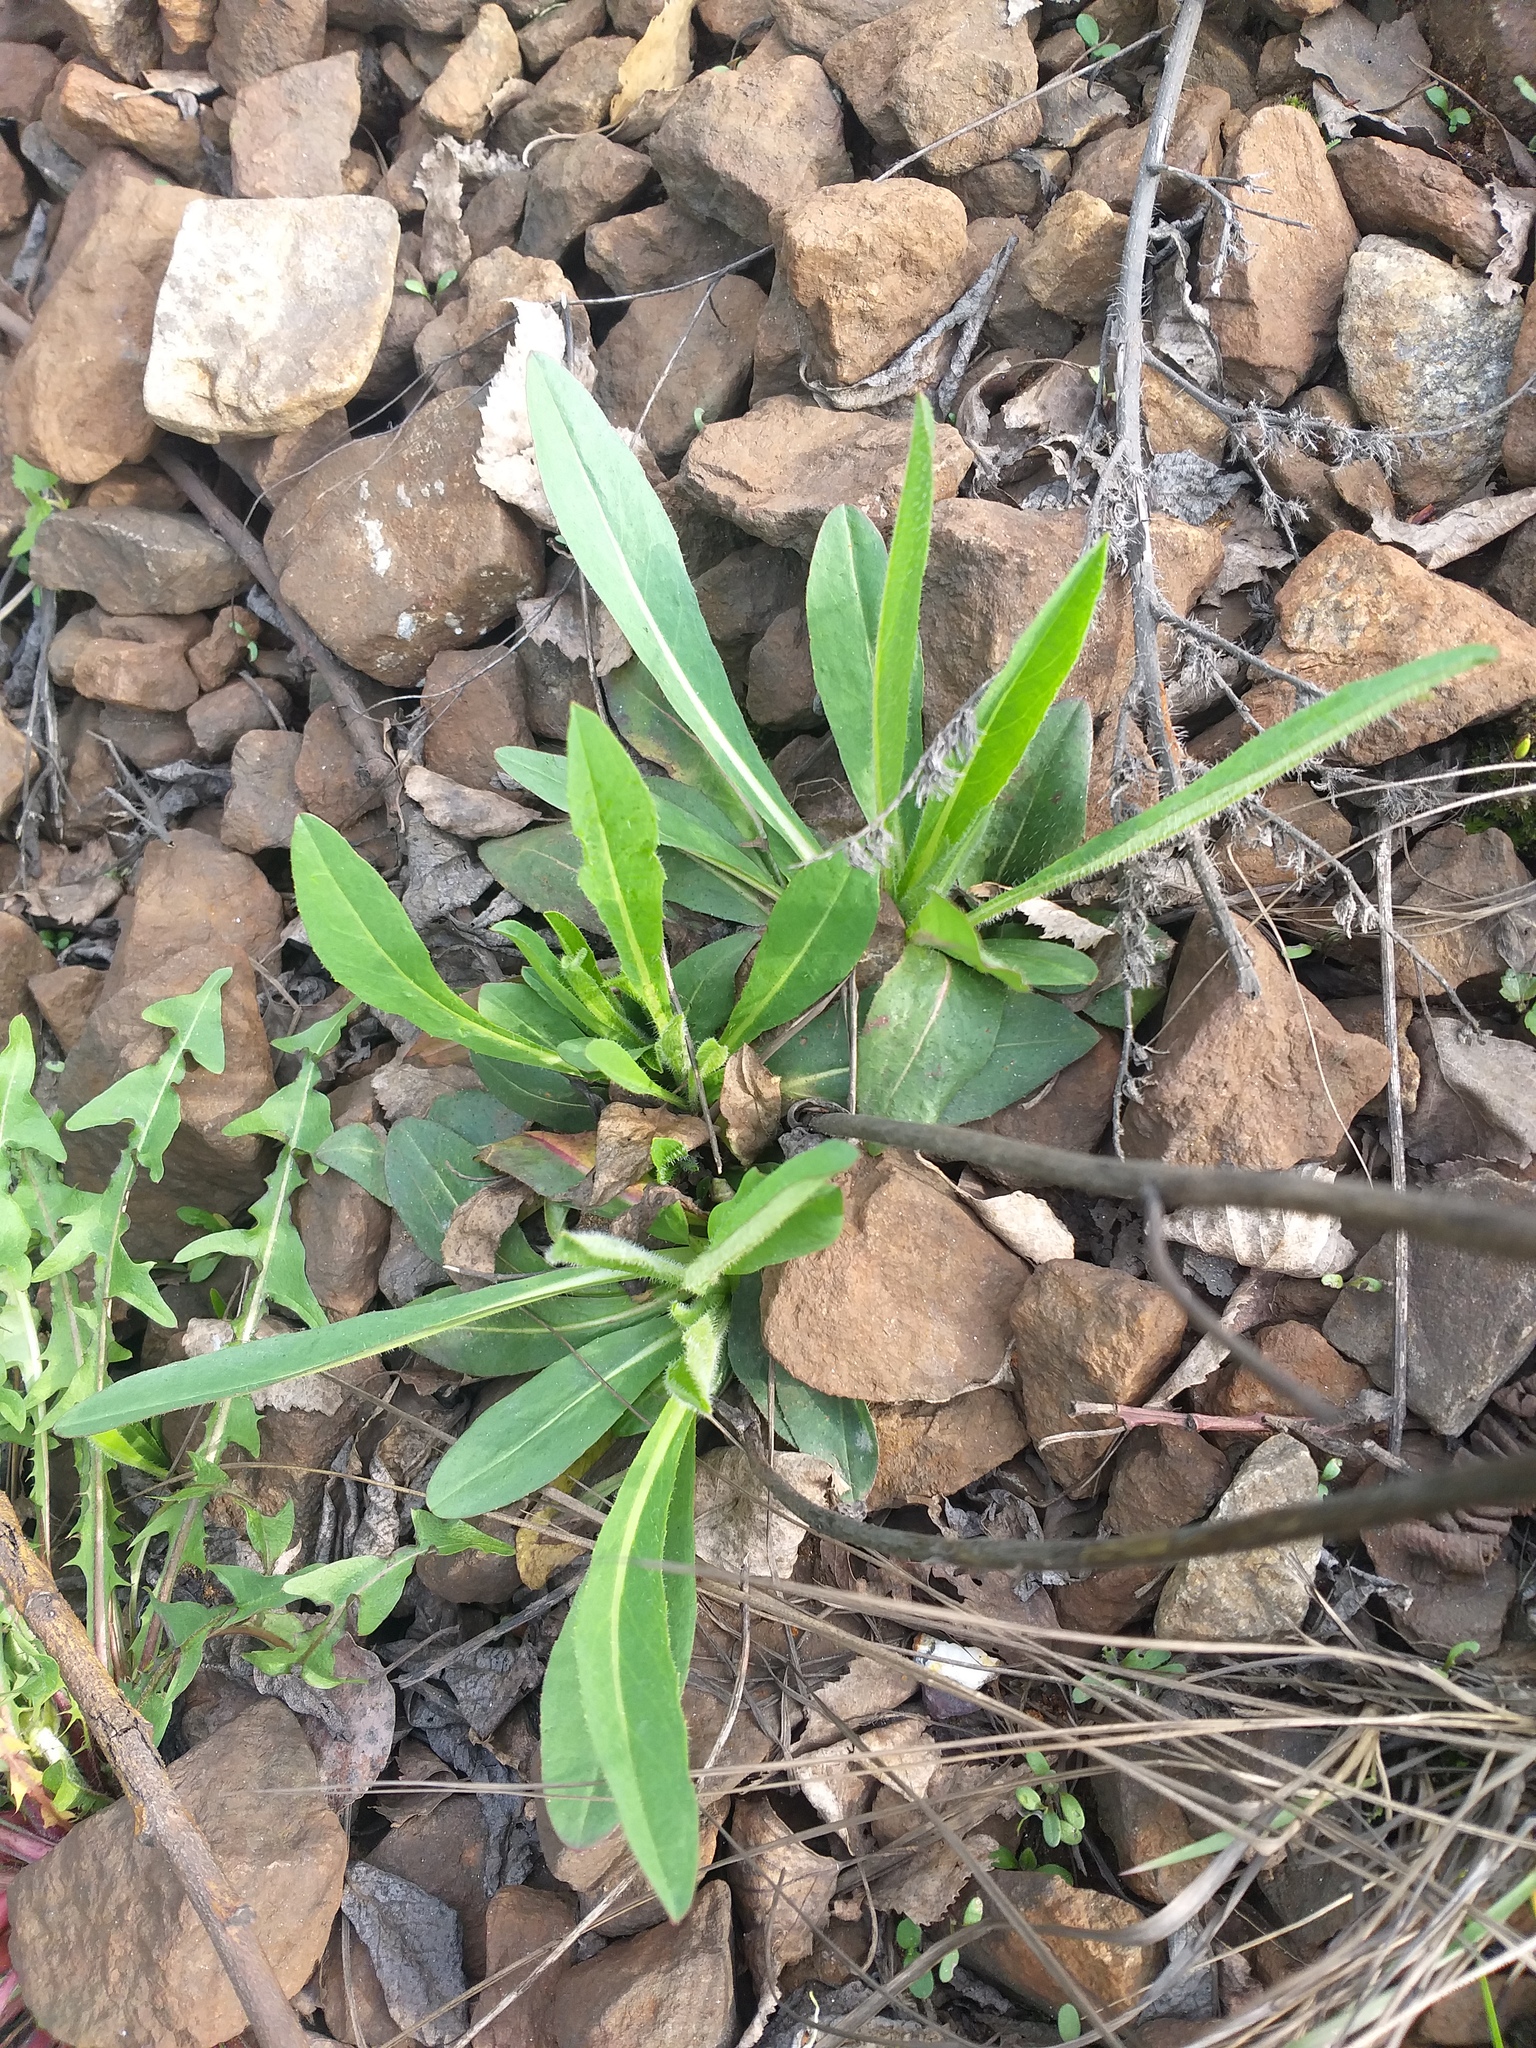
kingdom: Plantae
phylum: Tracheophyta
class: Magnoliopsida
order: Asterales
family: Asteraceae
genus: Pilosella
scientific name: Pilosella
